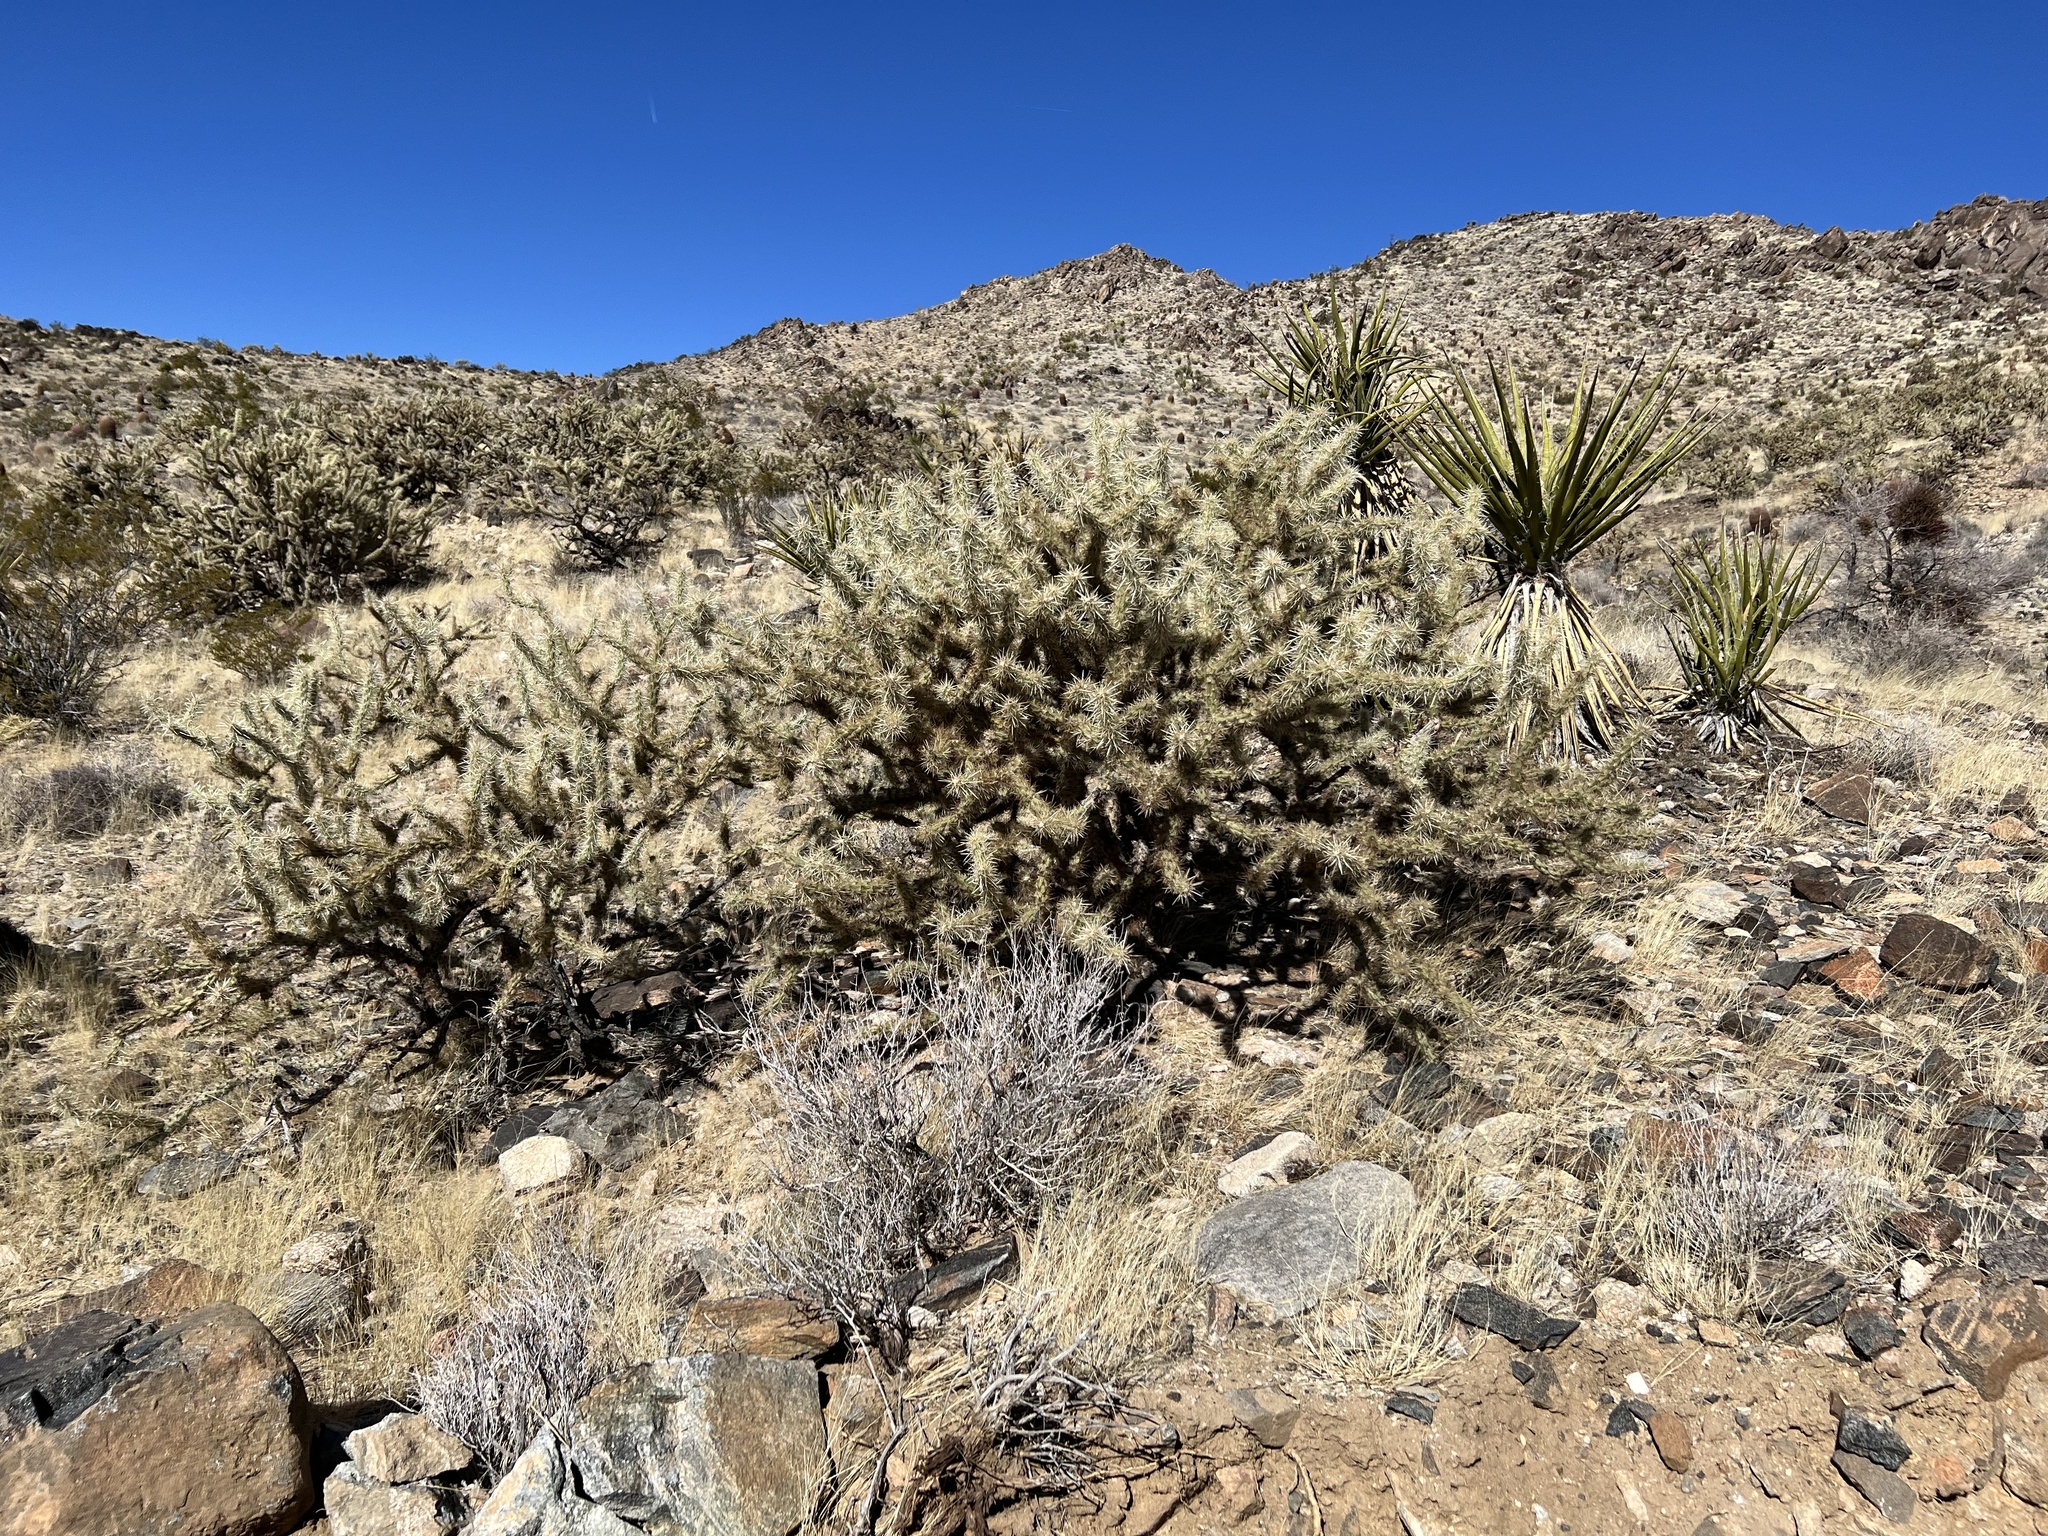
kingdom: Plantae
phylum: Tracheophyta
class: Magnoliopsida
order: Caryophyllales
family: Cactaceae
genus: Cylindropuntia
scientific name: Cylindropuntia acanthocarpa
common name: Buckhorn cholla
